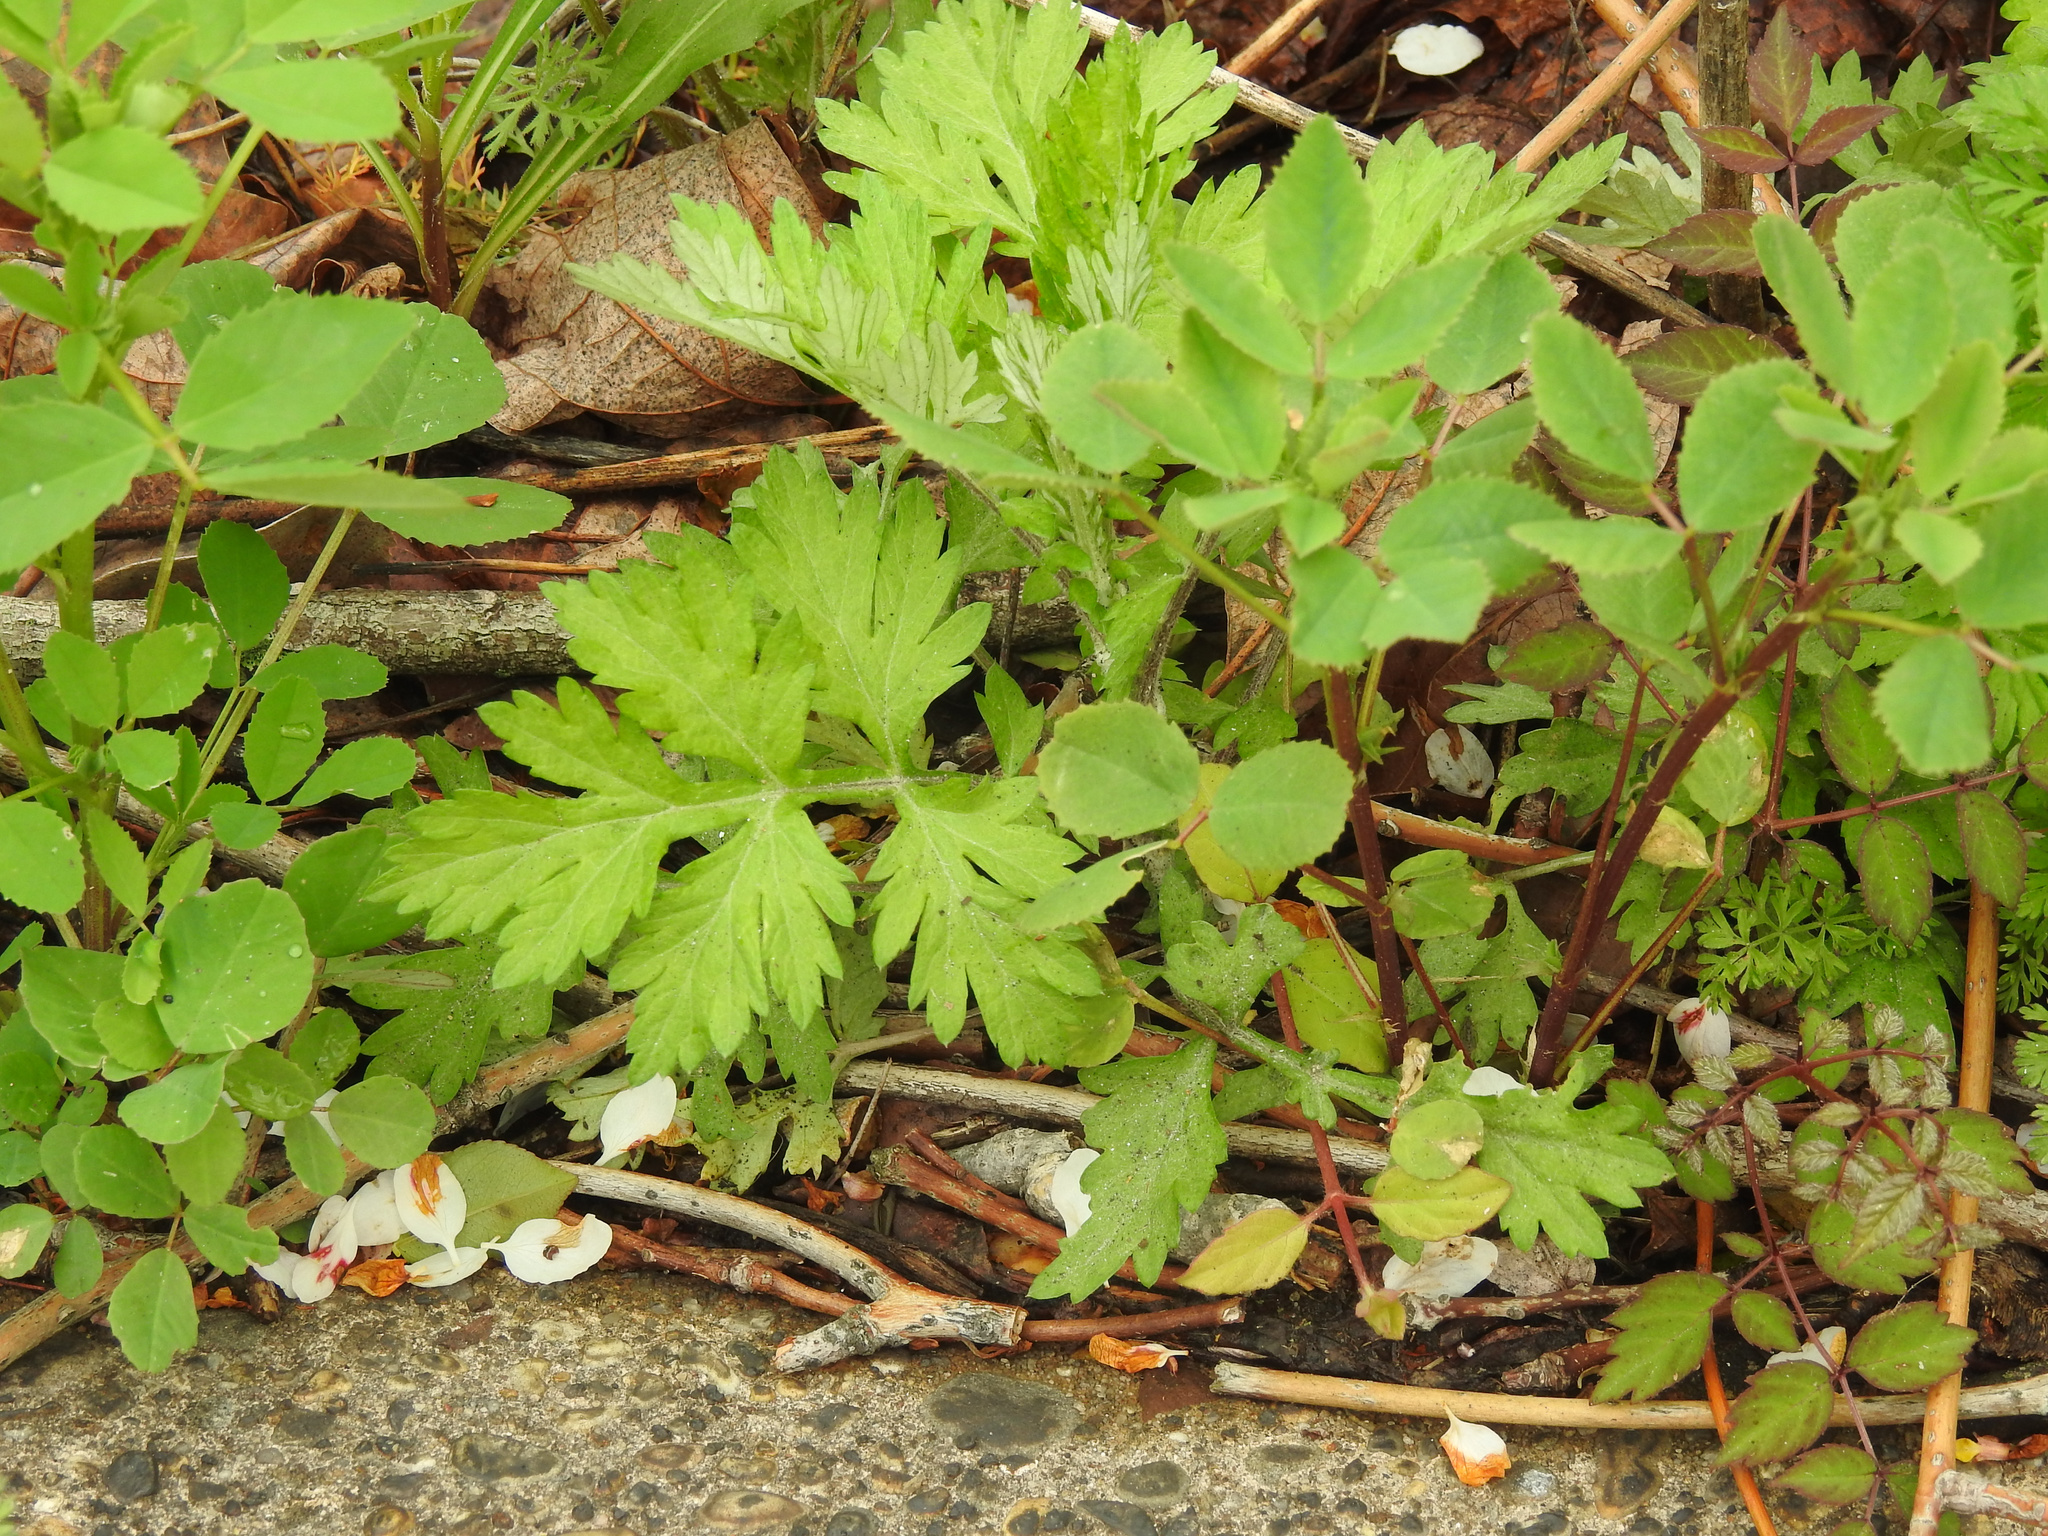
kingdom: Plantae
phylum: Tracheophyta
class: Magnoliopsida
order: Asterales
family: Asteraceae
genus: Artemisia
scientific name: Artemisia vulgaris
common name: Mugwort
